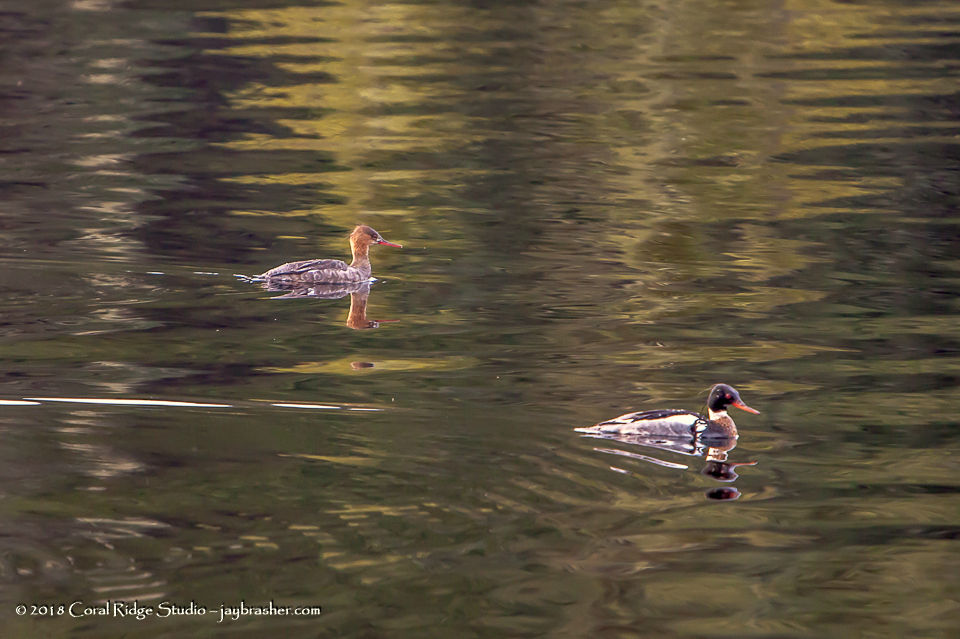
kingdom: Animalia
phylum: Chordata
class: Aves
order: Anseriformes
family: Anatidae
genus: Mergus
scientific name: Mergus serrator
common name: Red-breasted merganser
